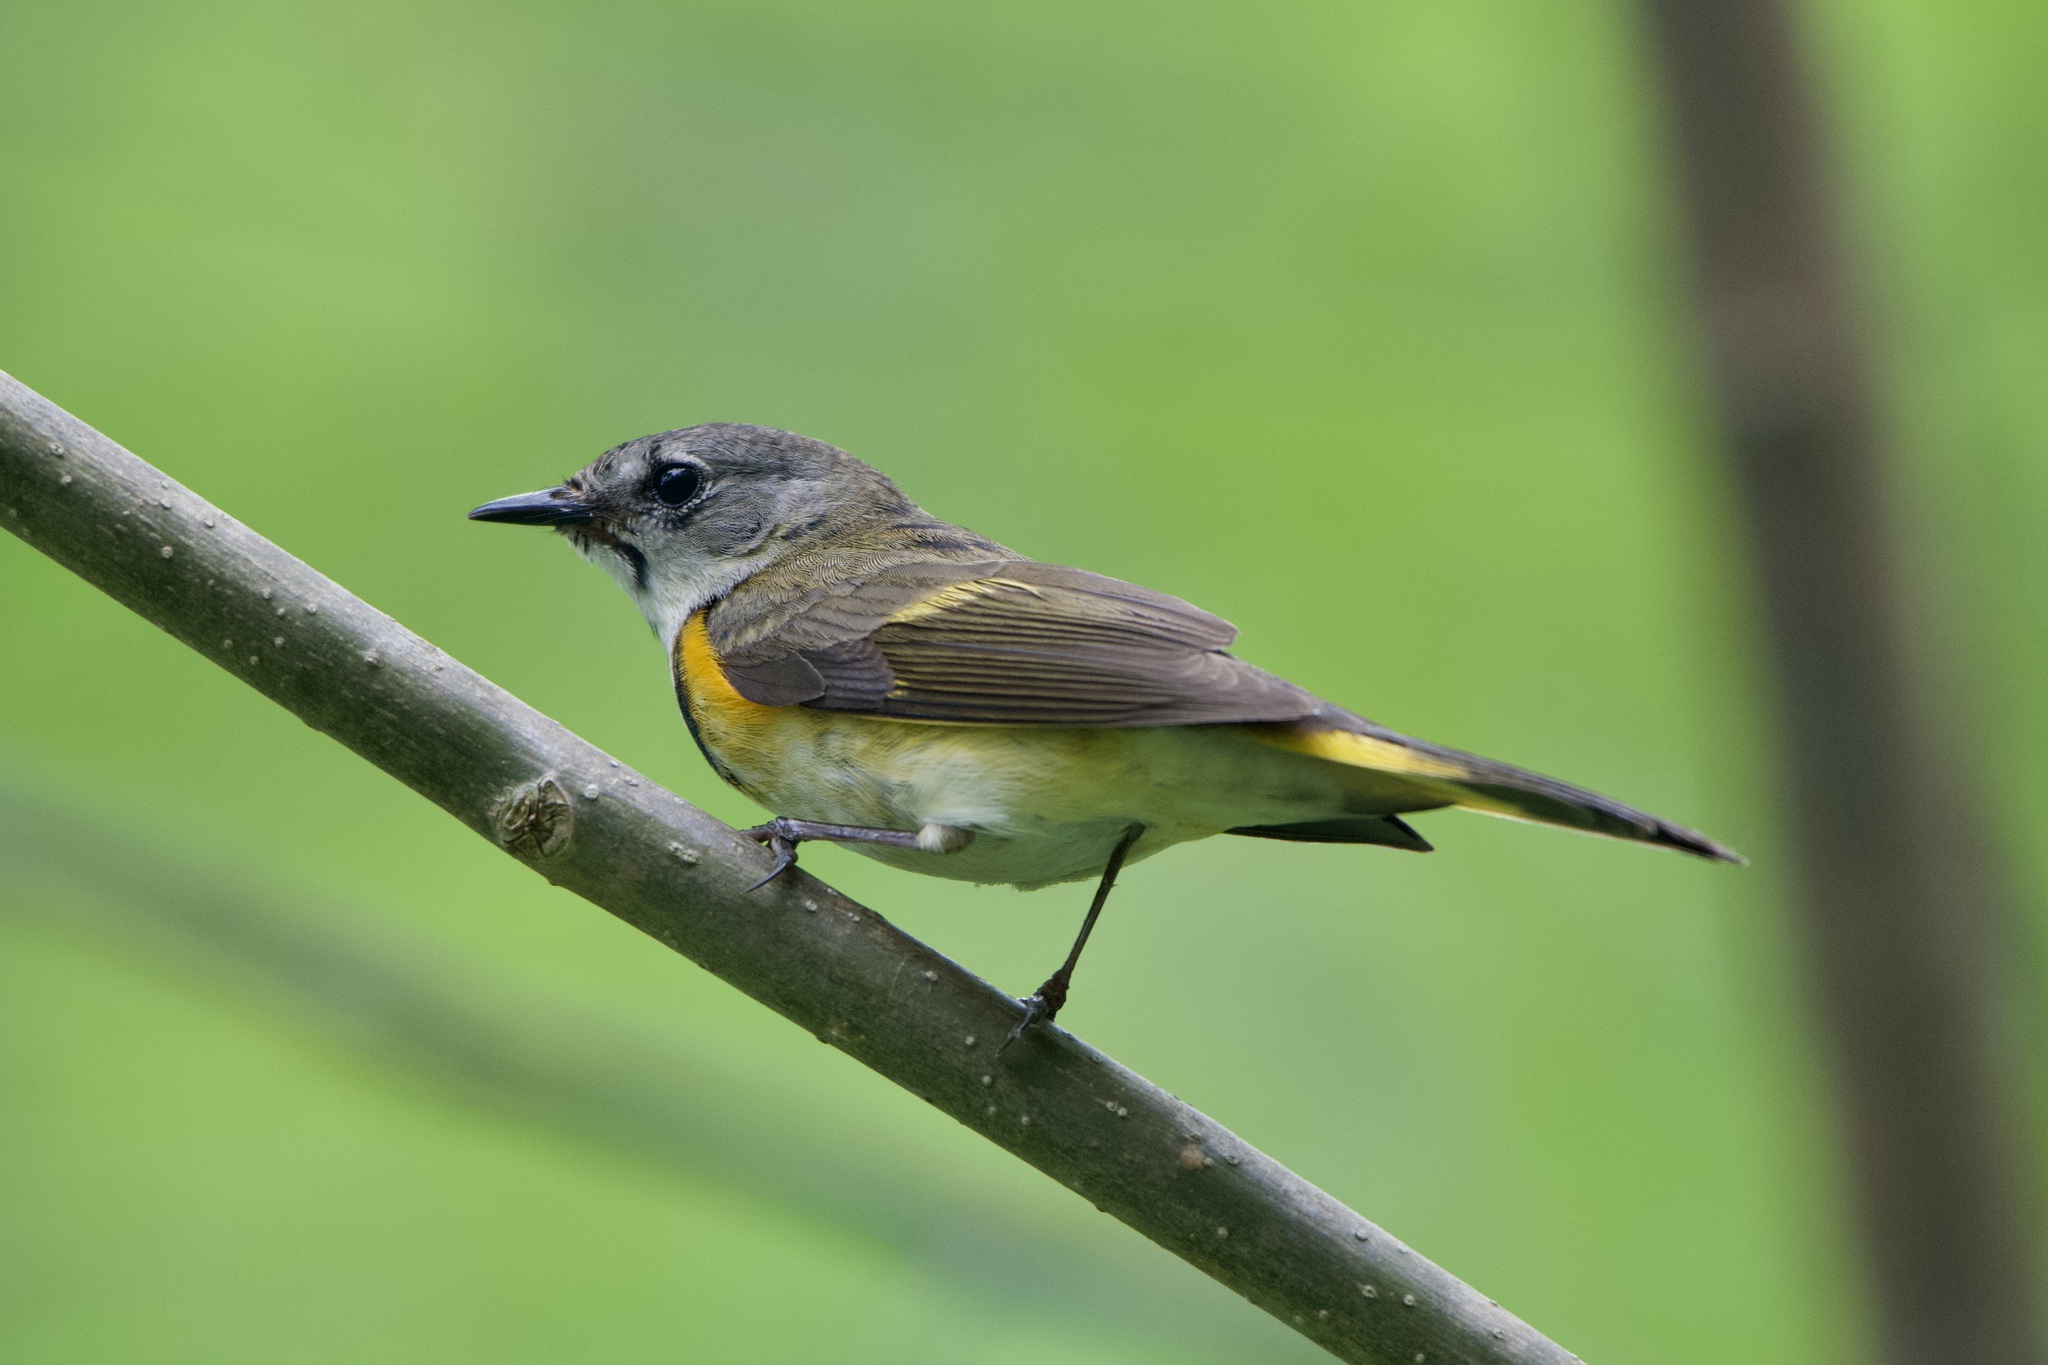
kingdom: Animalia
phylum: Chordata
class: Aves
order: Passeriformes
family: Parulidae
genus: Setophaga
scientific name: Setophaga ruticilla
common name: American redstart
